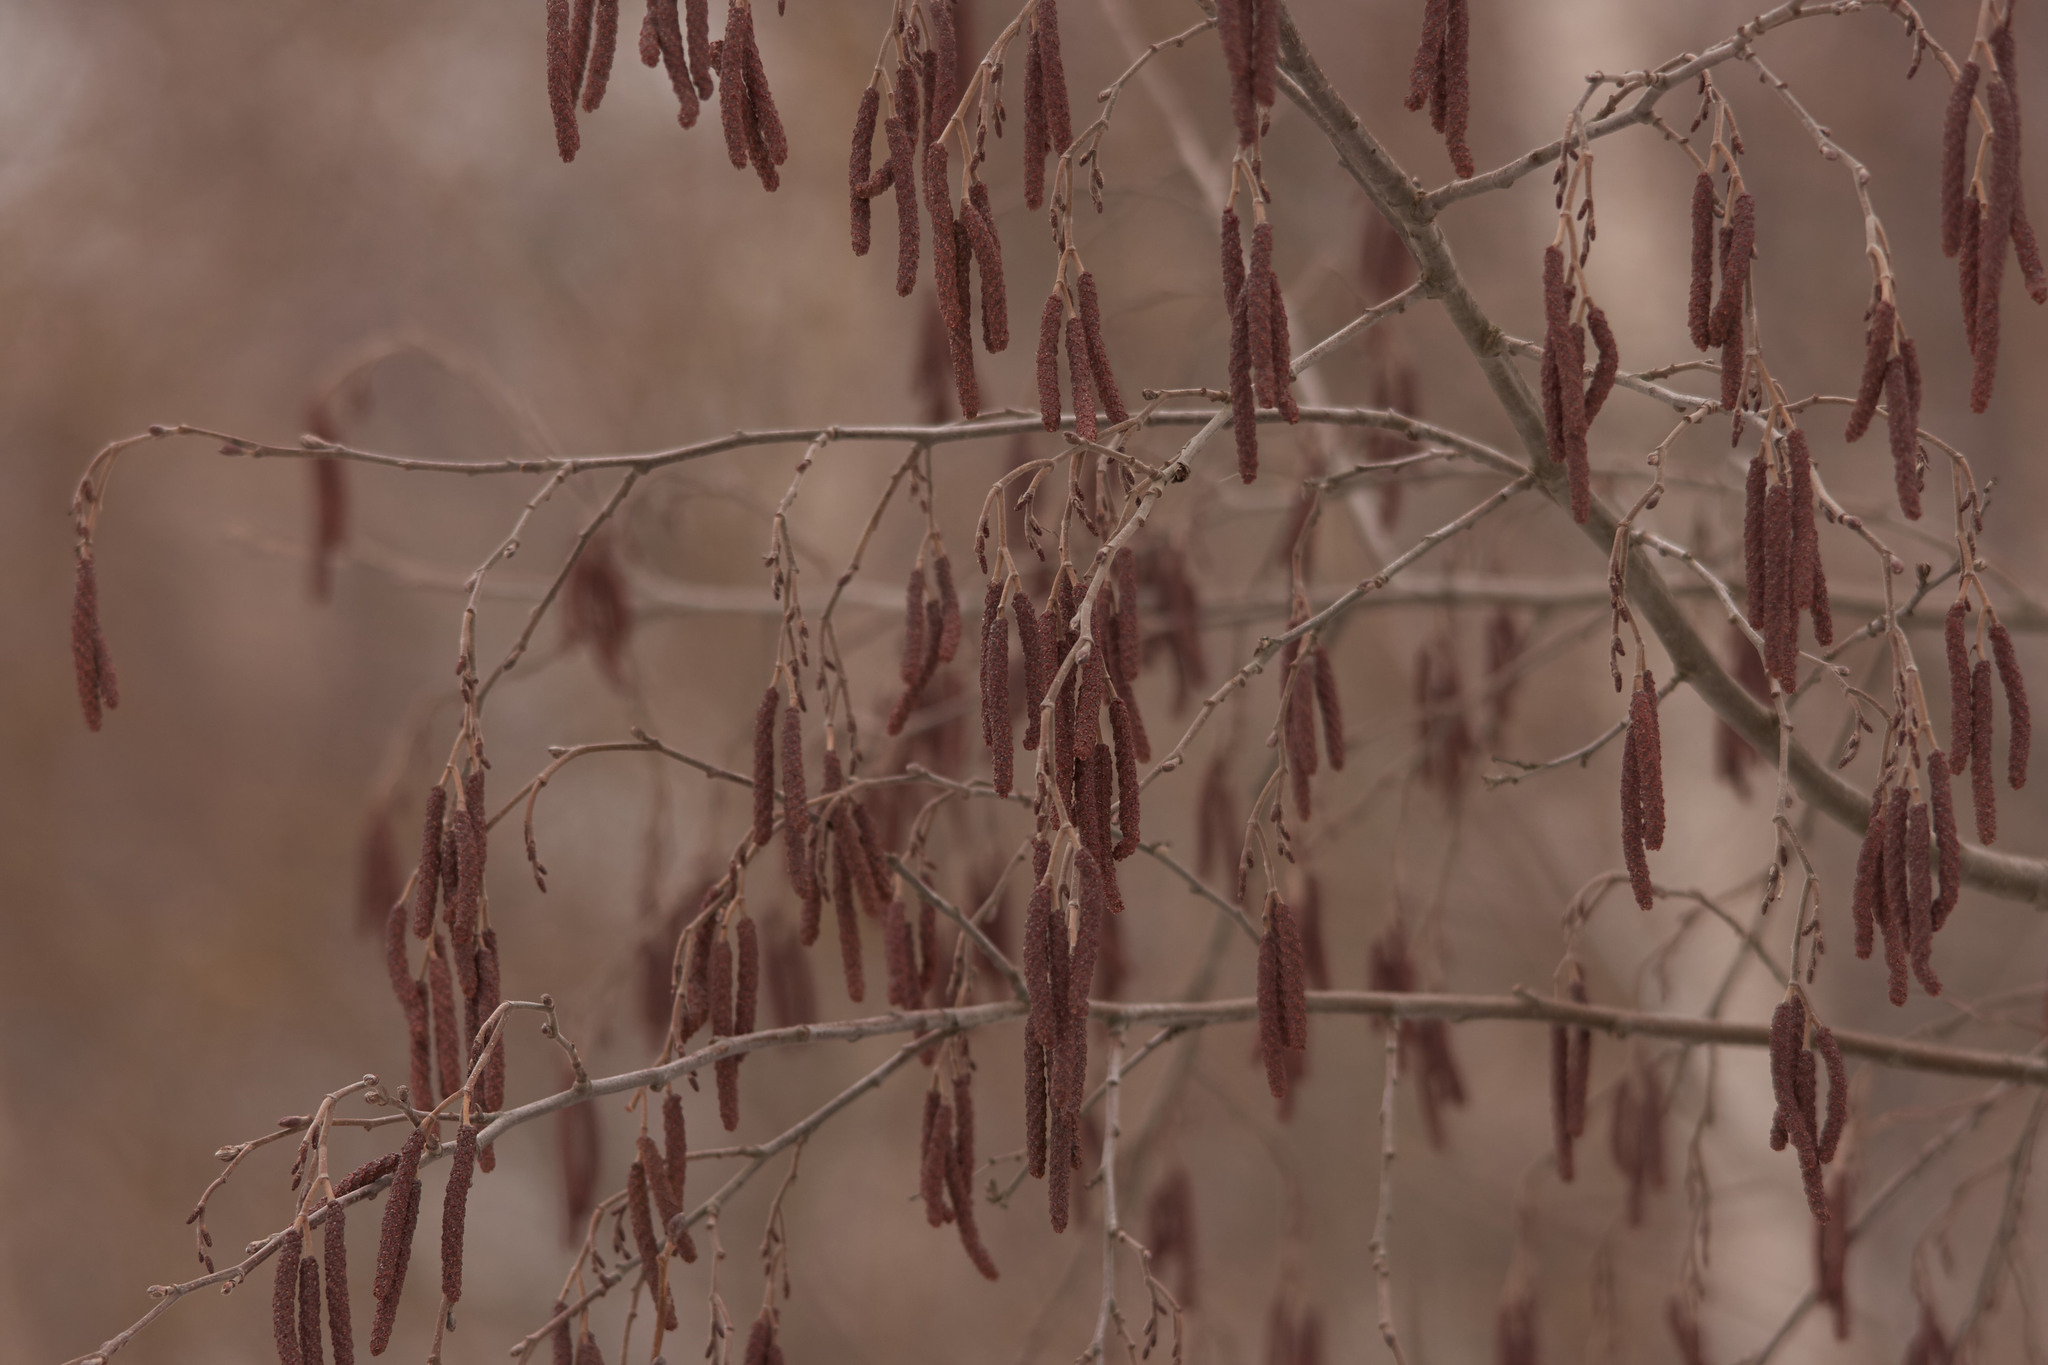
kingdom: Plantae
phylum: Tracheophyta
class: Magnoliopsida
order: Fagales
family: Betulaceae
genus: Alnus
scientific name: Alnus incana
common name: Grey alder
